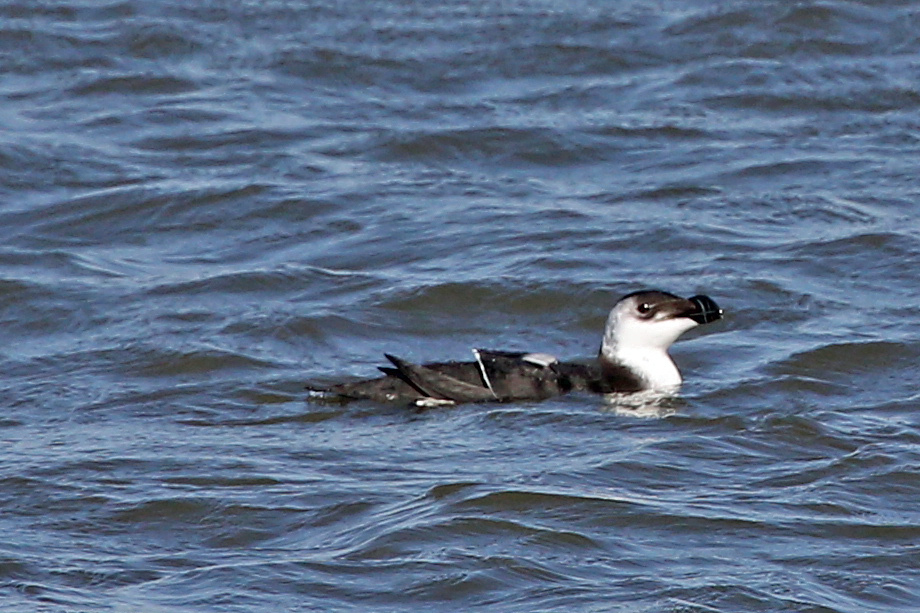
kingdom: Animalia
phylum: Chordata
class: Aves
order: Charadriiformes
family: Alcidae
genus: Alca
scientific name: Alca torda
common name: Razorbill
